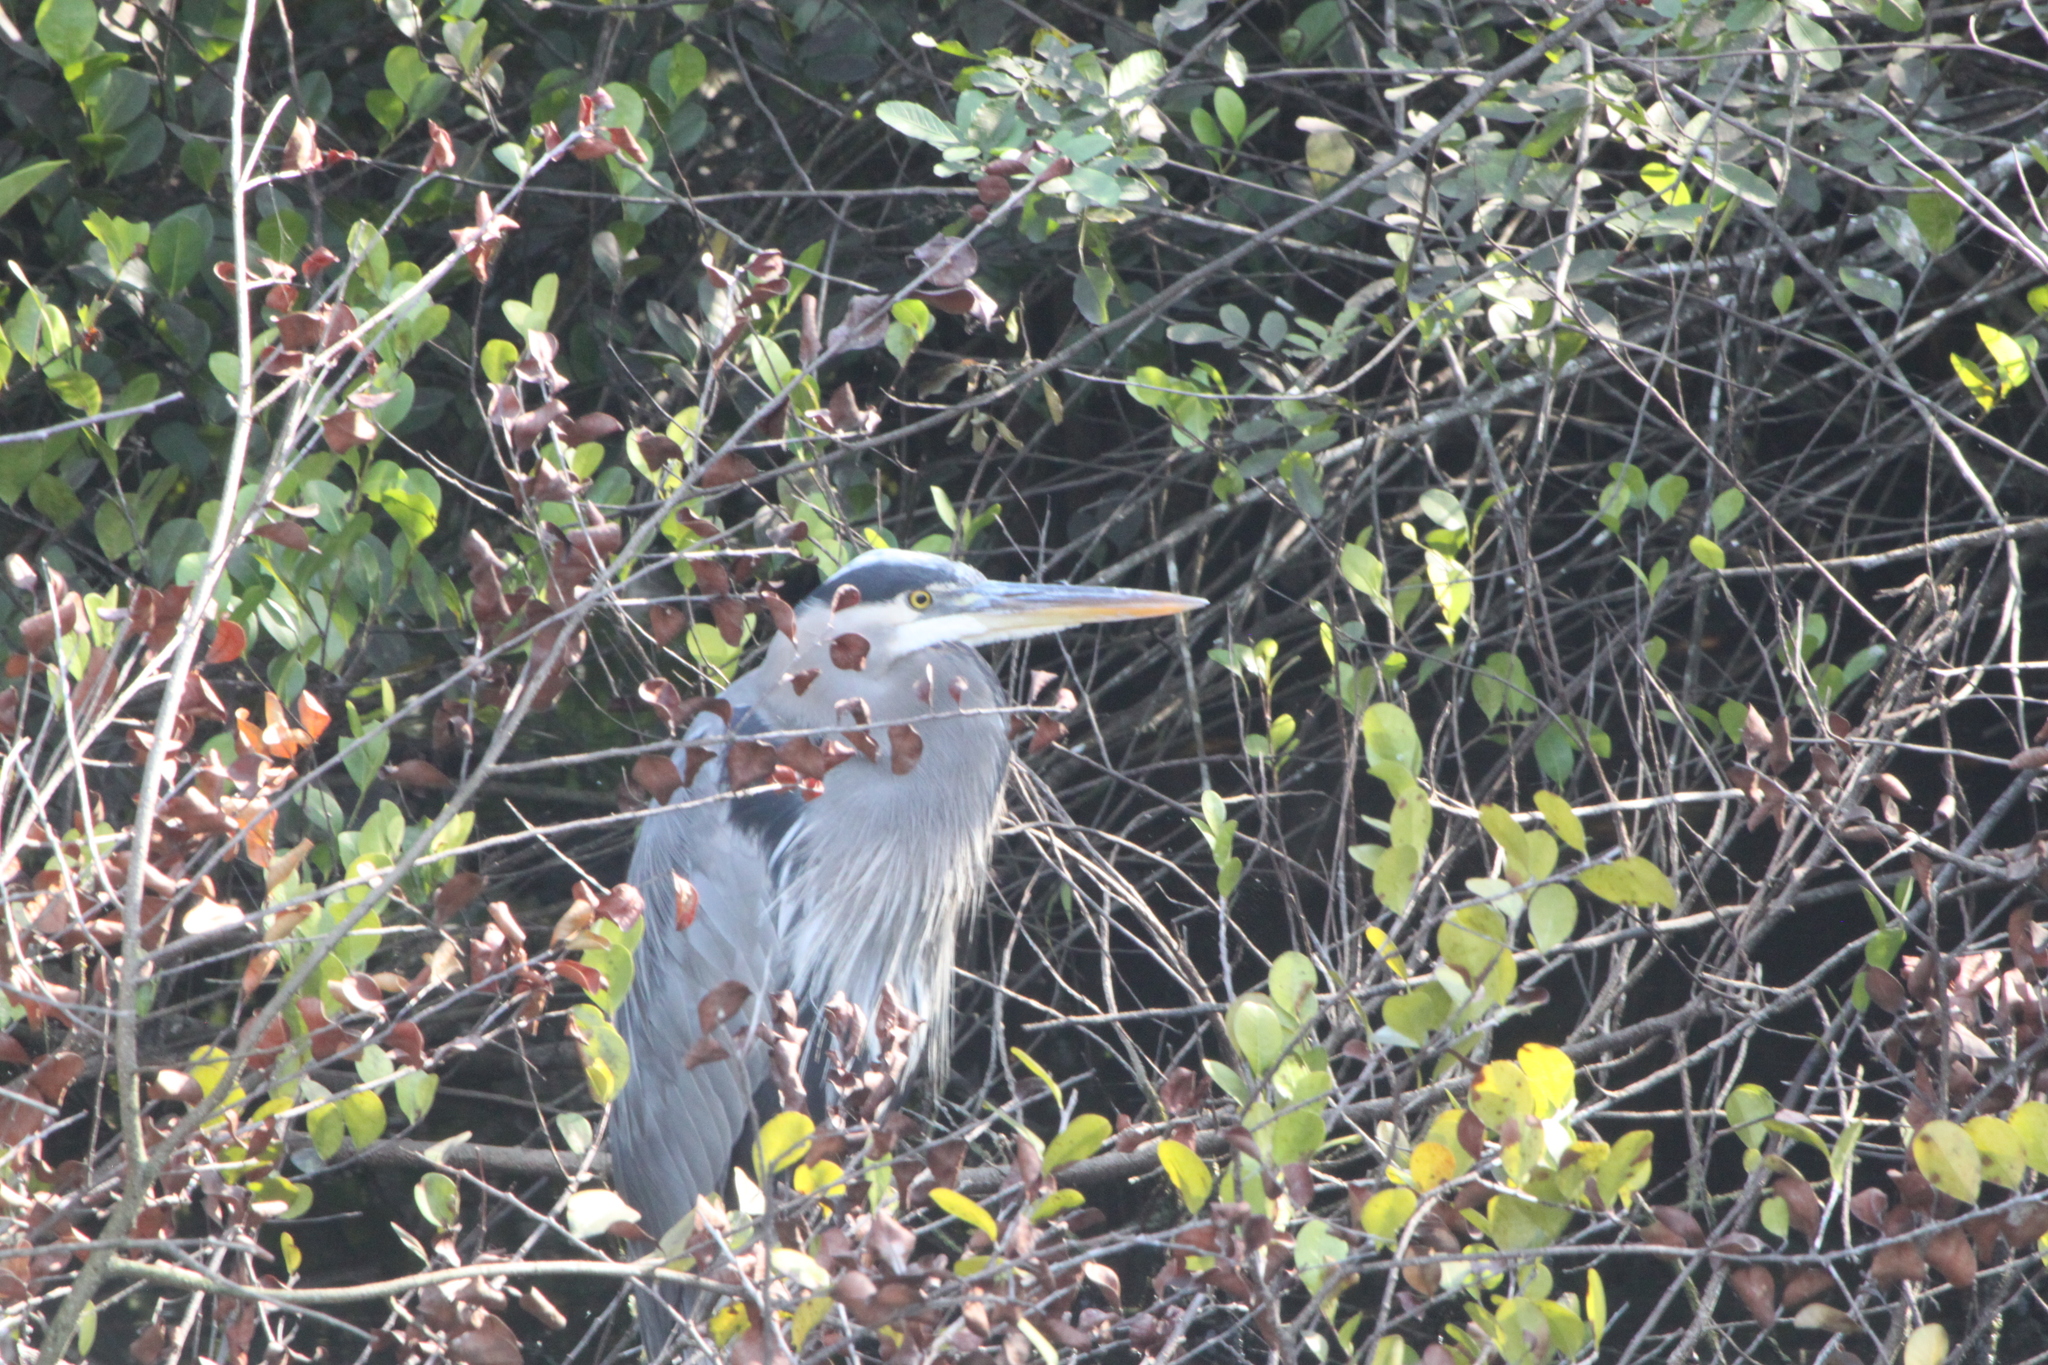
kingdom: Animalia
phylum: Chordata
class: Aves
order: Pelecaniformes
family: Ardeidae
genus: Ardea
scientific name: Ardea herodias
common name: Great blue heron
